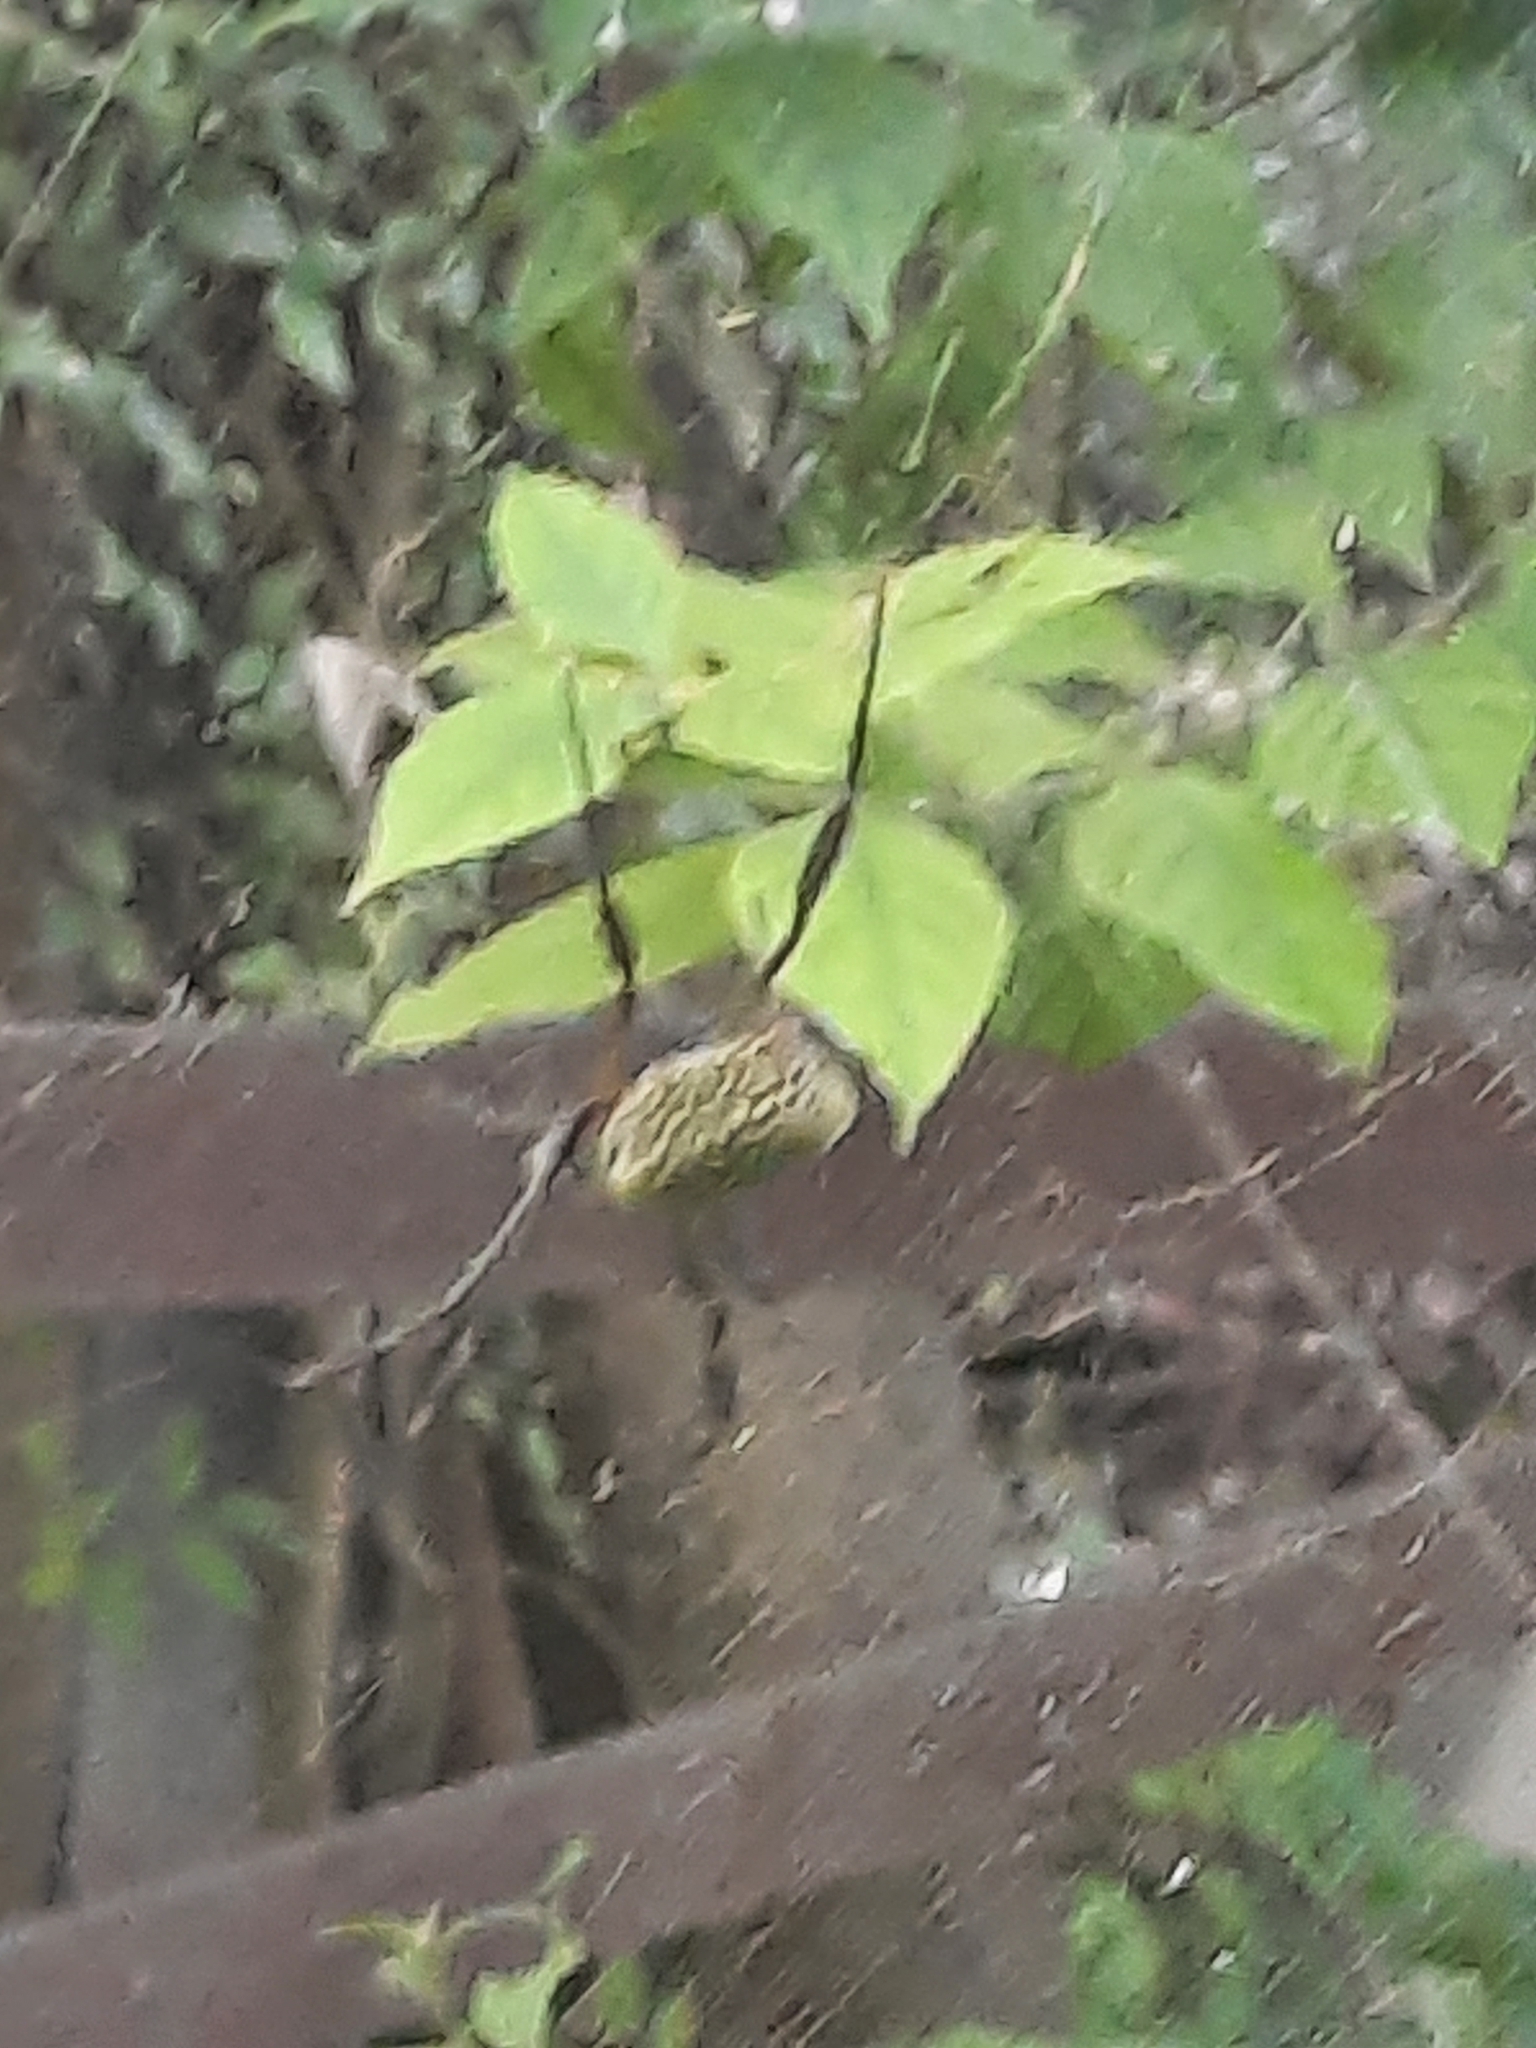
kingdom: Animalia
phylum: Arthropoda
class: Arachnida
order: Araneae
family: Araneidae
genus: Trichonephila
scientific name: Trichonephila clavipes
